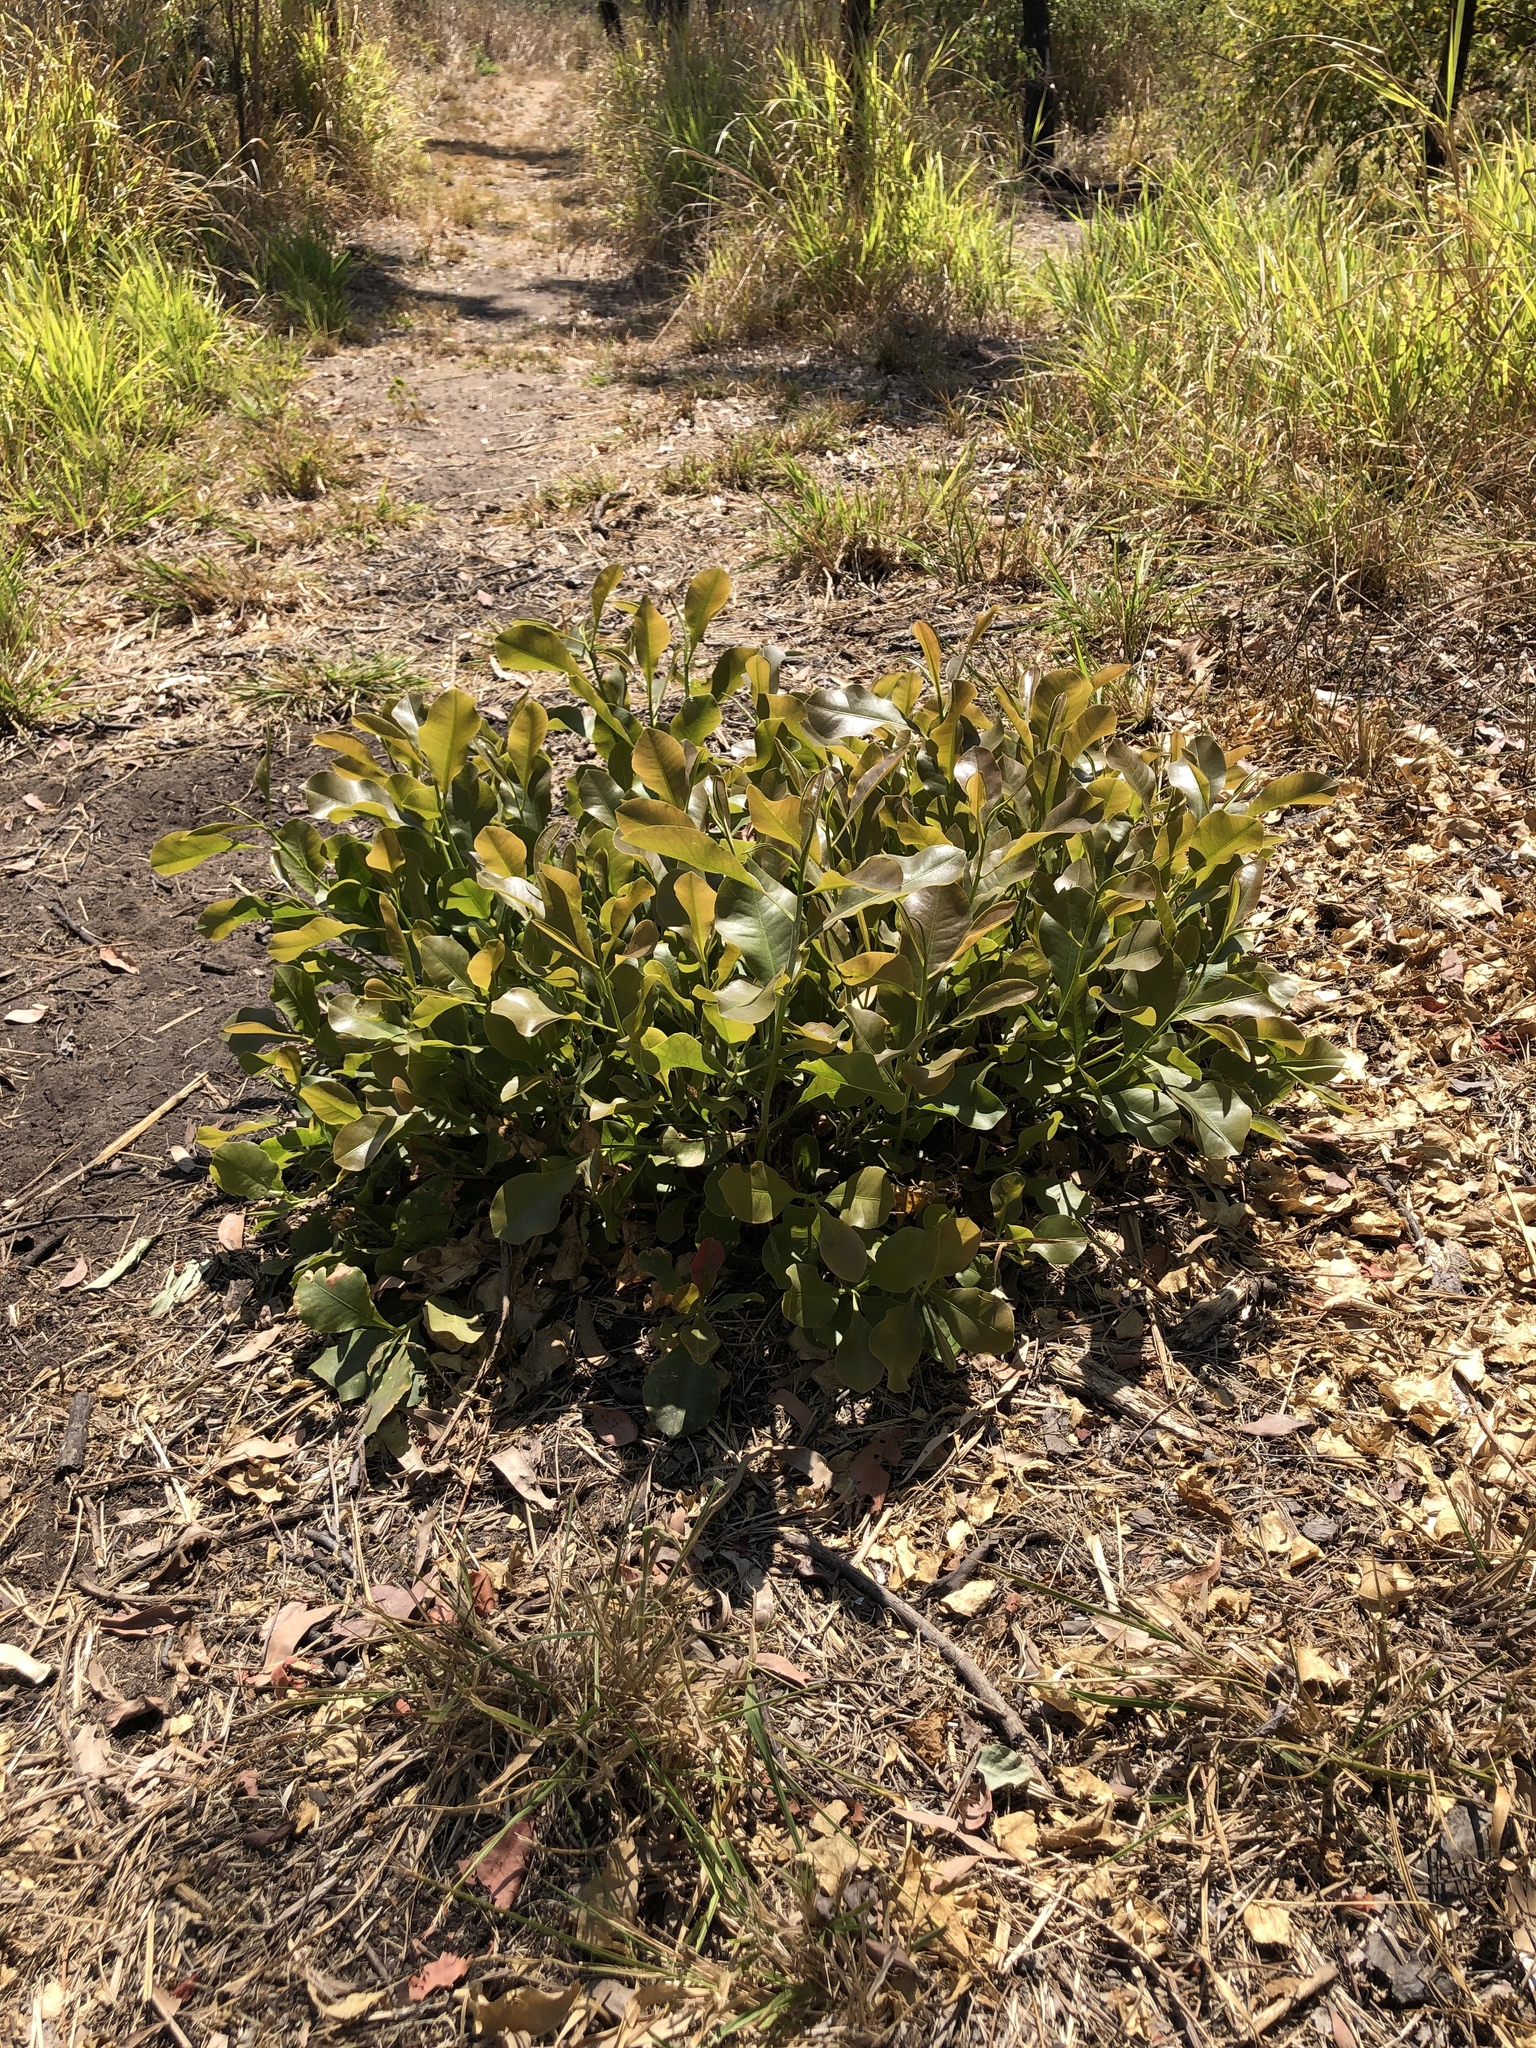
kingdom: Plantae
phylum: Tracheophyta
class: Magnoliopsida
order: Ericales
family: Lecythidaceae
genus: Planchonia
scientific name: Planchonia careya
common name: Cockatoo-apple
